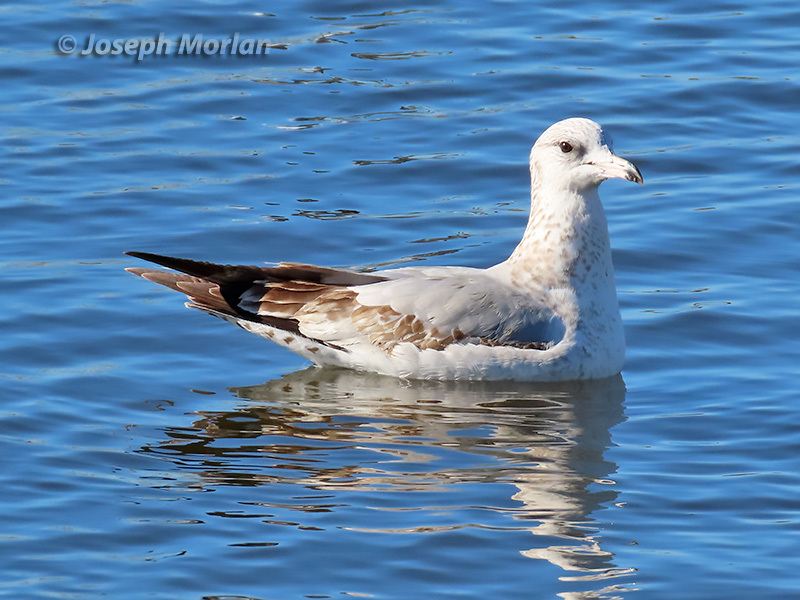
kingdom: Animalia
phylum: Chordata
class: Aves
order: Charadriiformes
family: Laridae
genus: Larus
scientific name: Larus delawarensis
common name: Ring-billed gull
